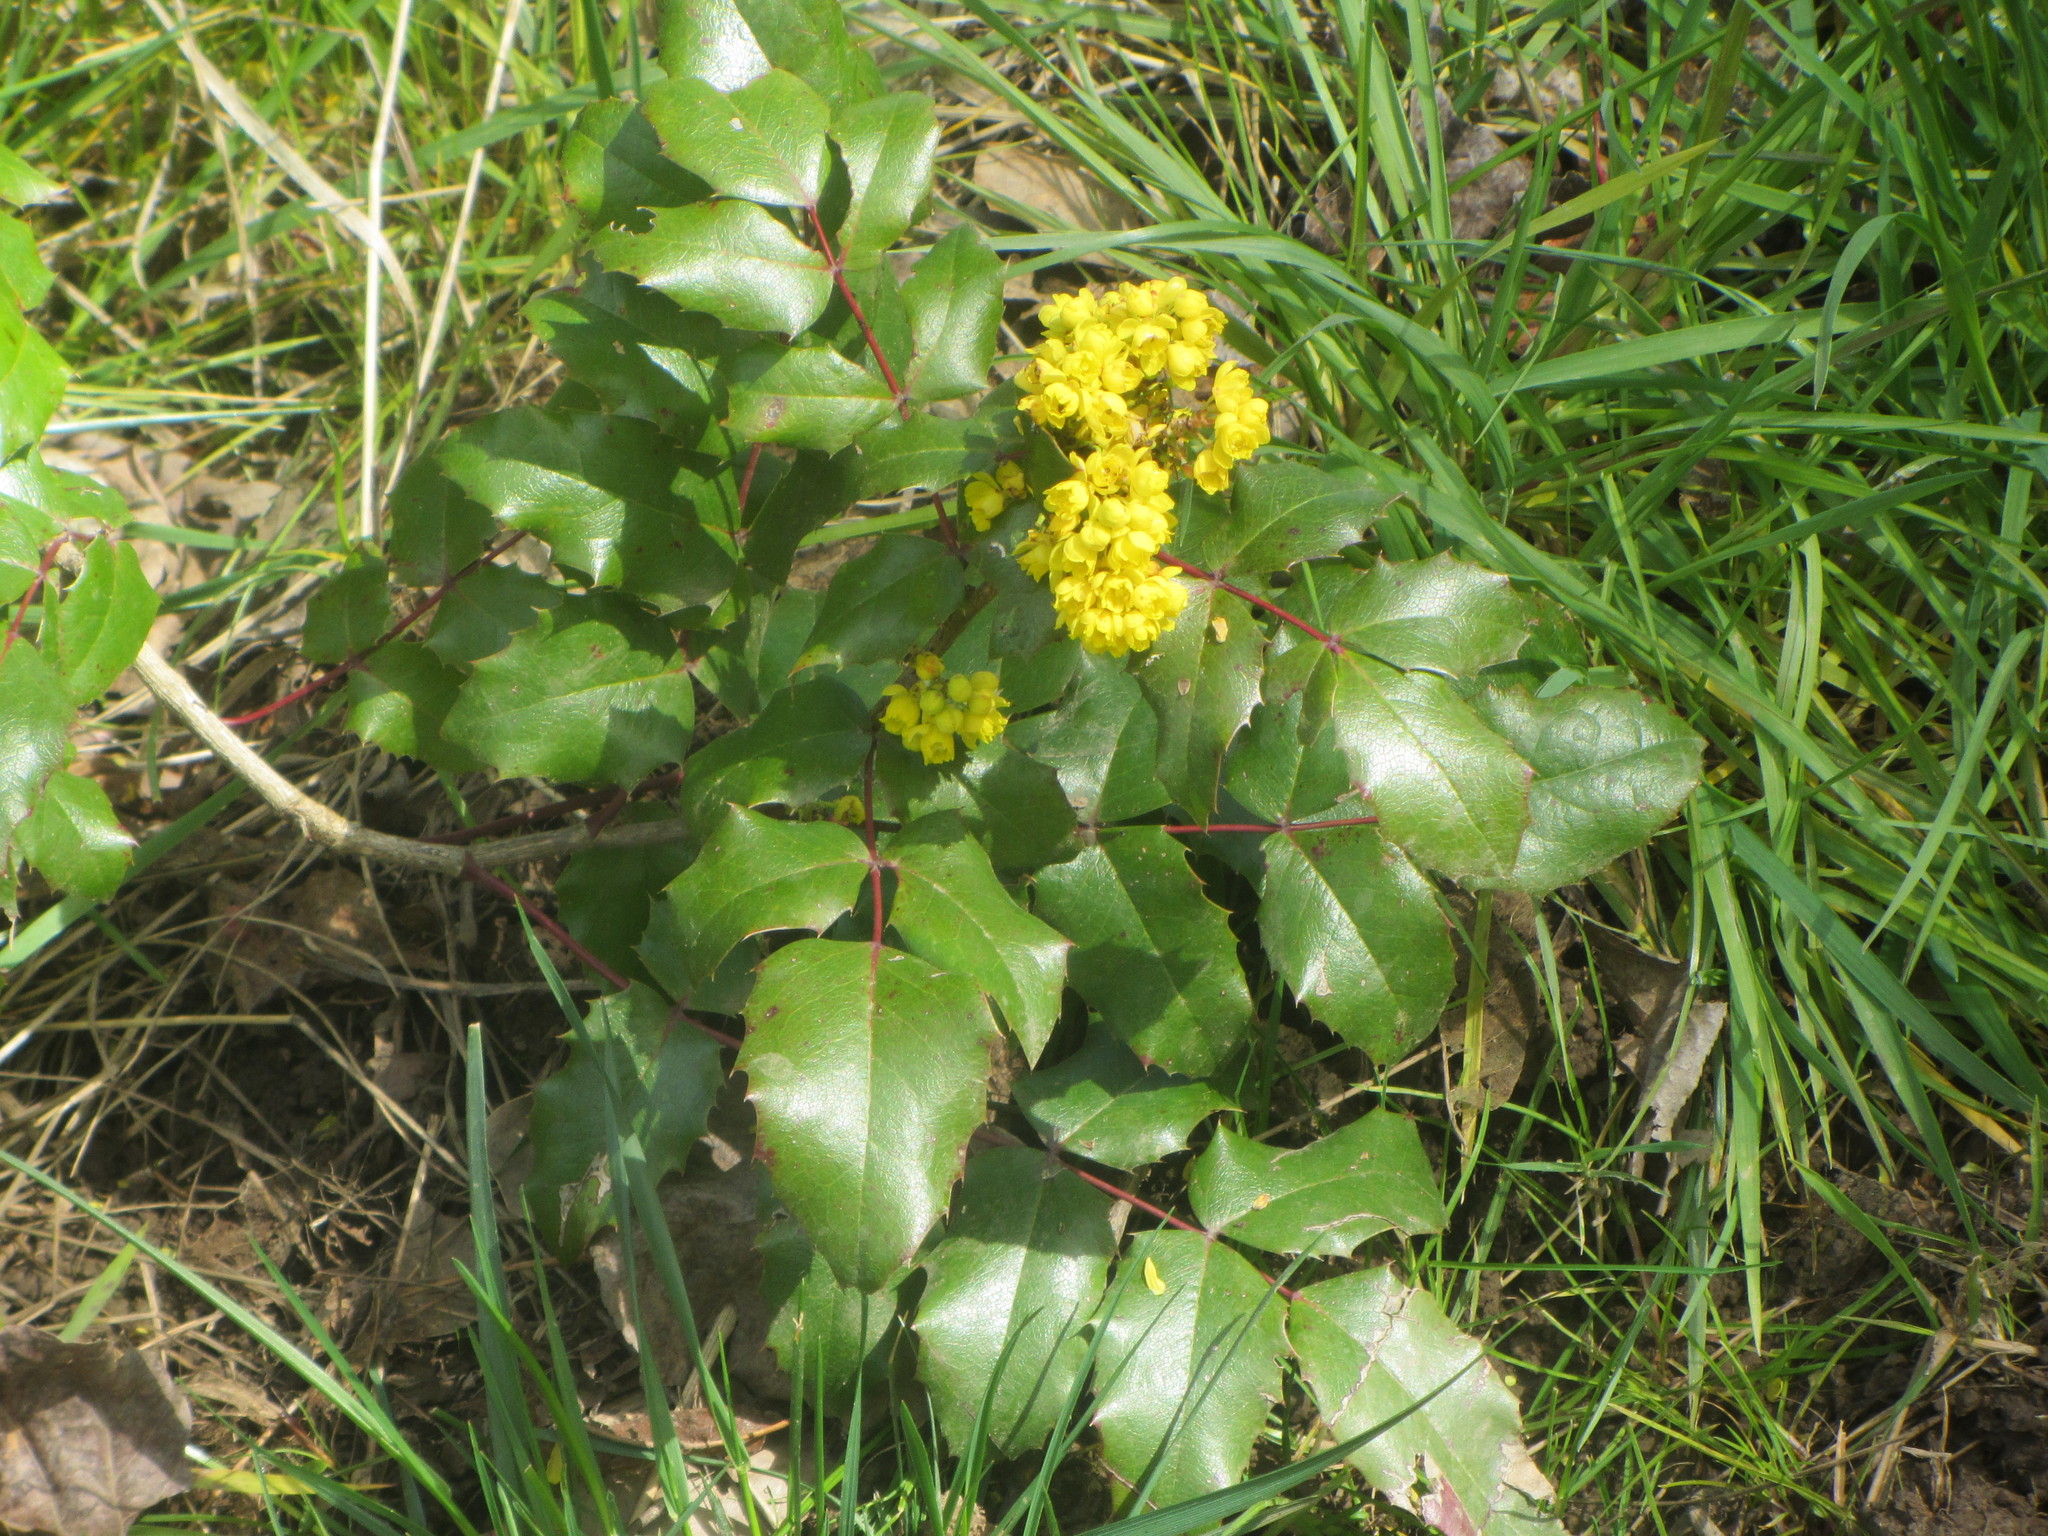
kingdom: Plantae
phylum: Tracheophyta
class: Magnoliopsida
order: Ranunculales
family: Berberidaceae
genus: Mahonia
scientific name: Mahonia aquifolium
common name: Oregon-grape
